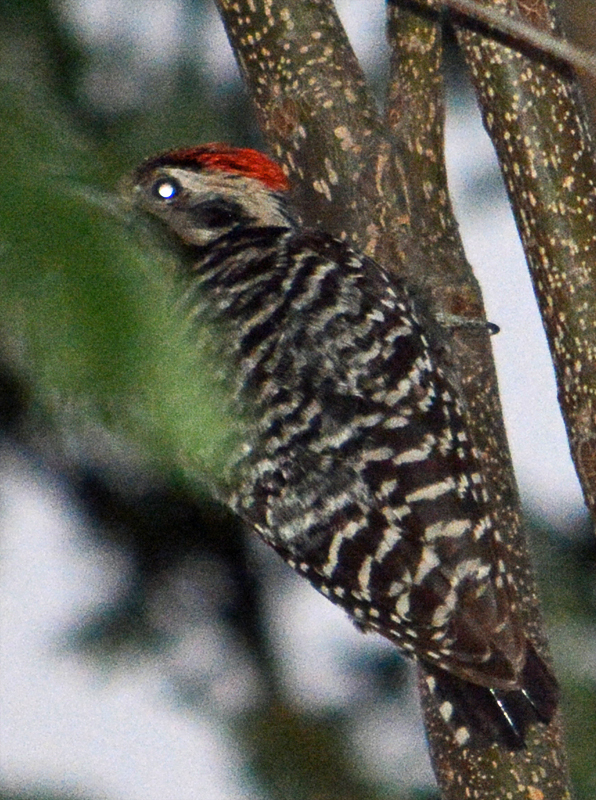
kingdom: Animalia
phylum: Chordata
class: Aves
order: Piciformes
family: Picidae
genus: Dryobates
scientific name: Dryobates scalaris
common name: Ladder-backed woodpecker
